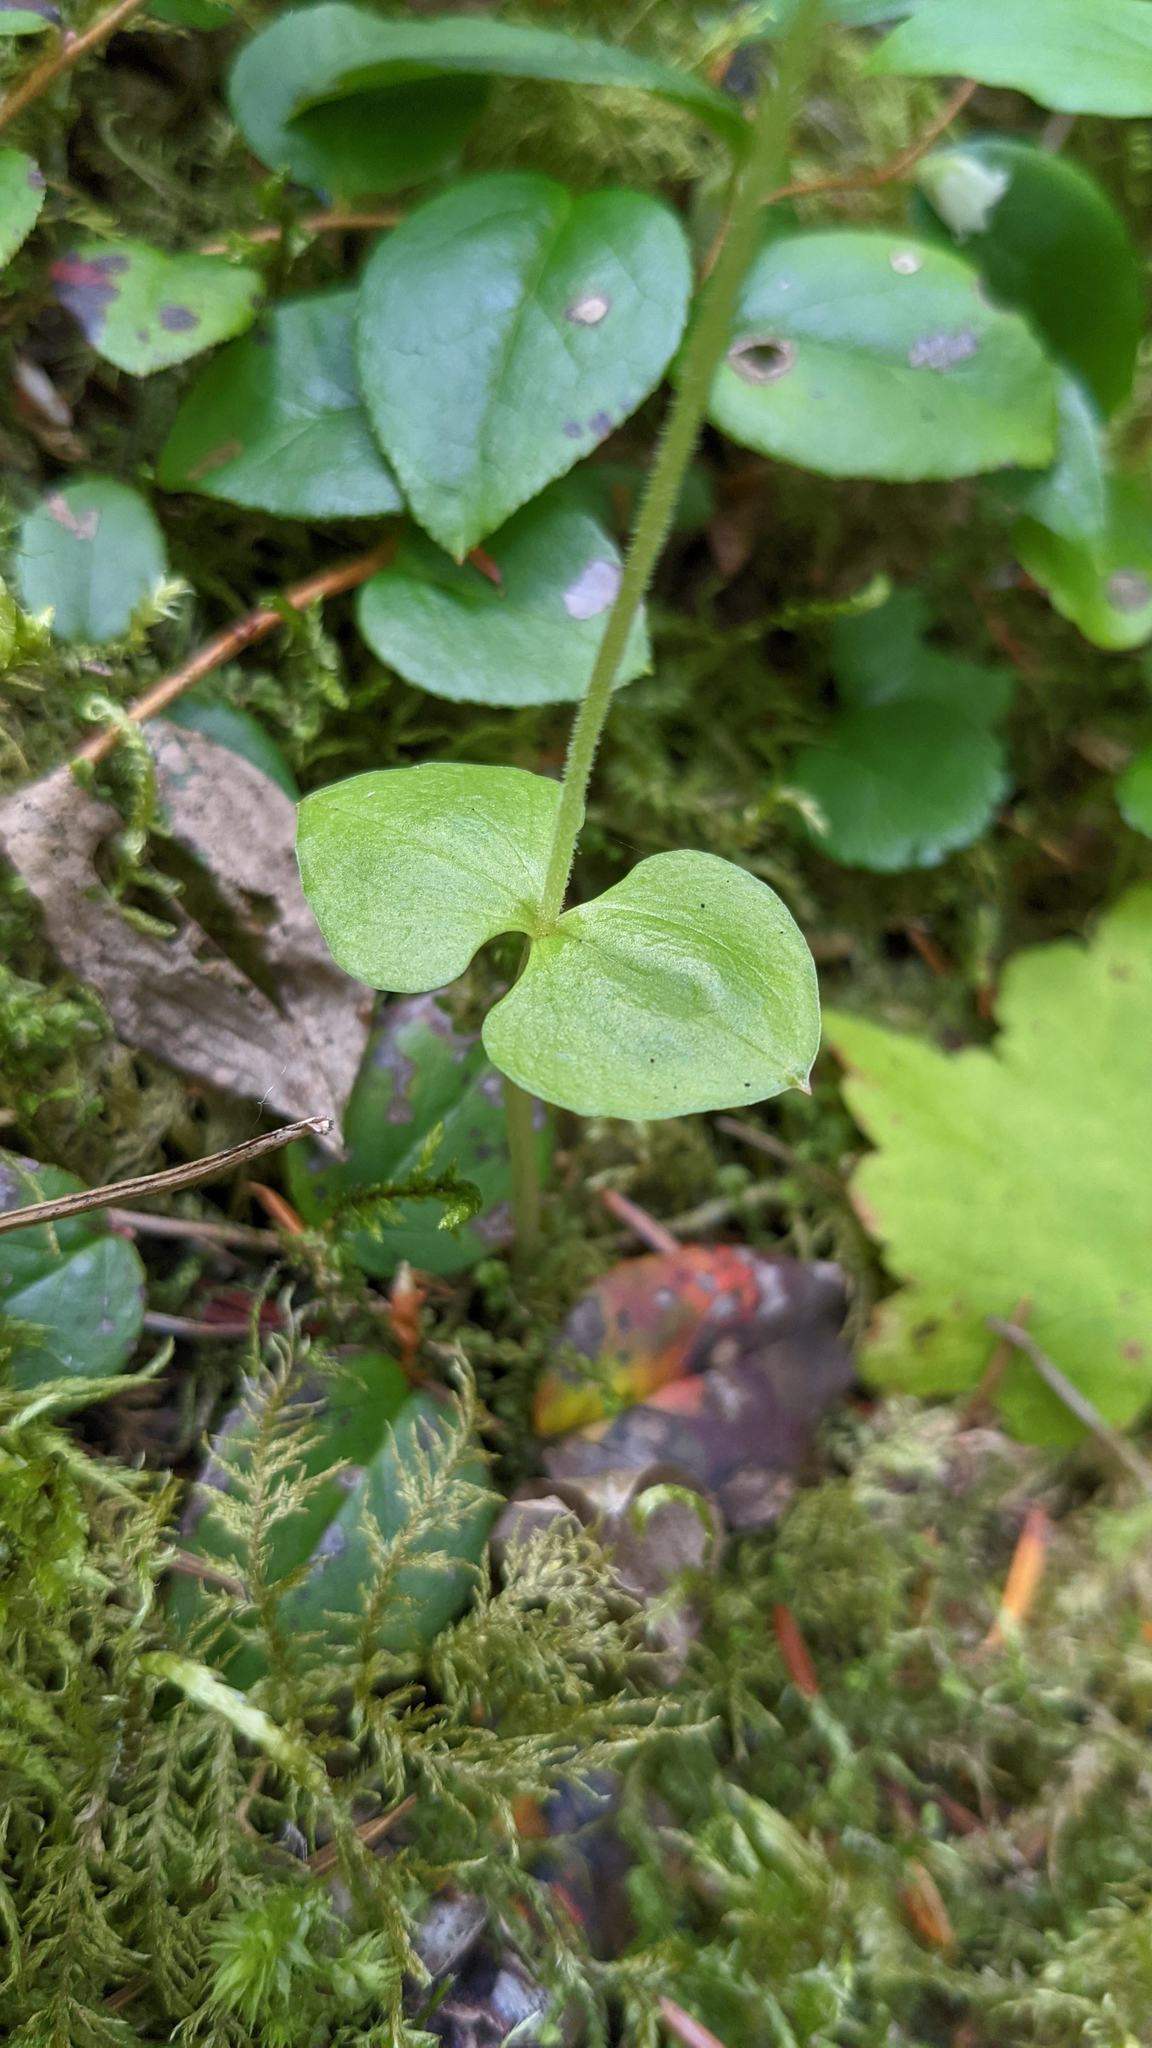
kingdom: Plantae
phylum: Tracheophyta
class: Liliopsida
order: Asparagales
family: Orchidaceae
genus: Neottia
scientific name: Neottia cordata
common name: Lesser twayblade
